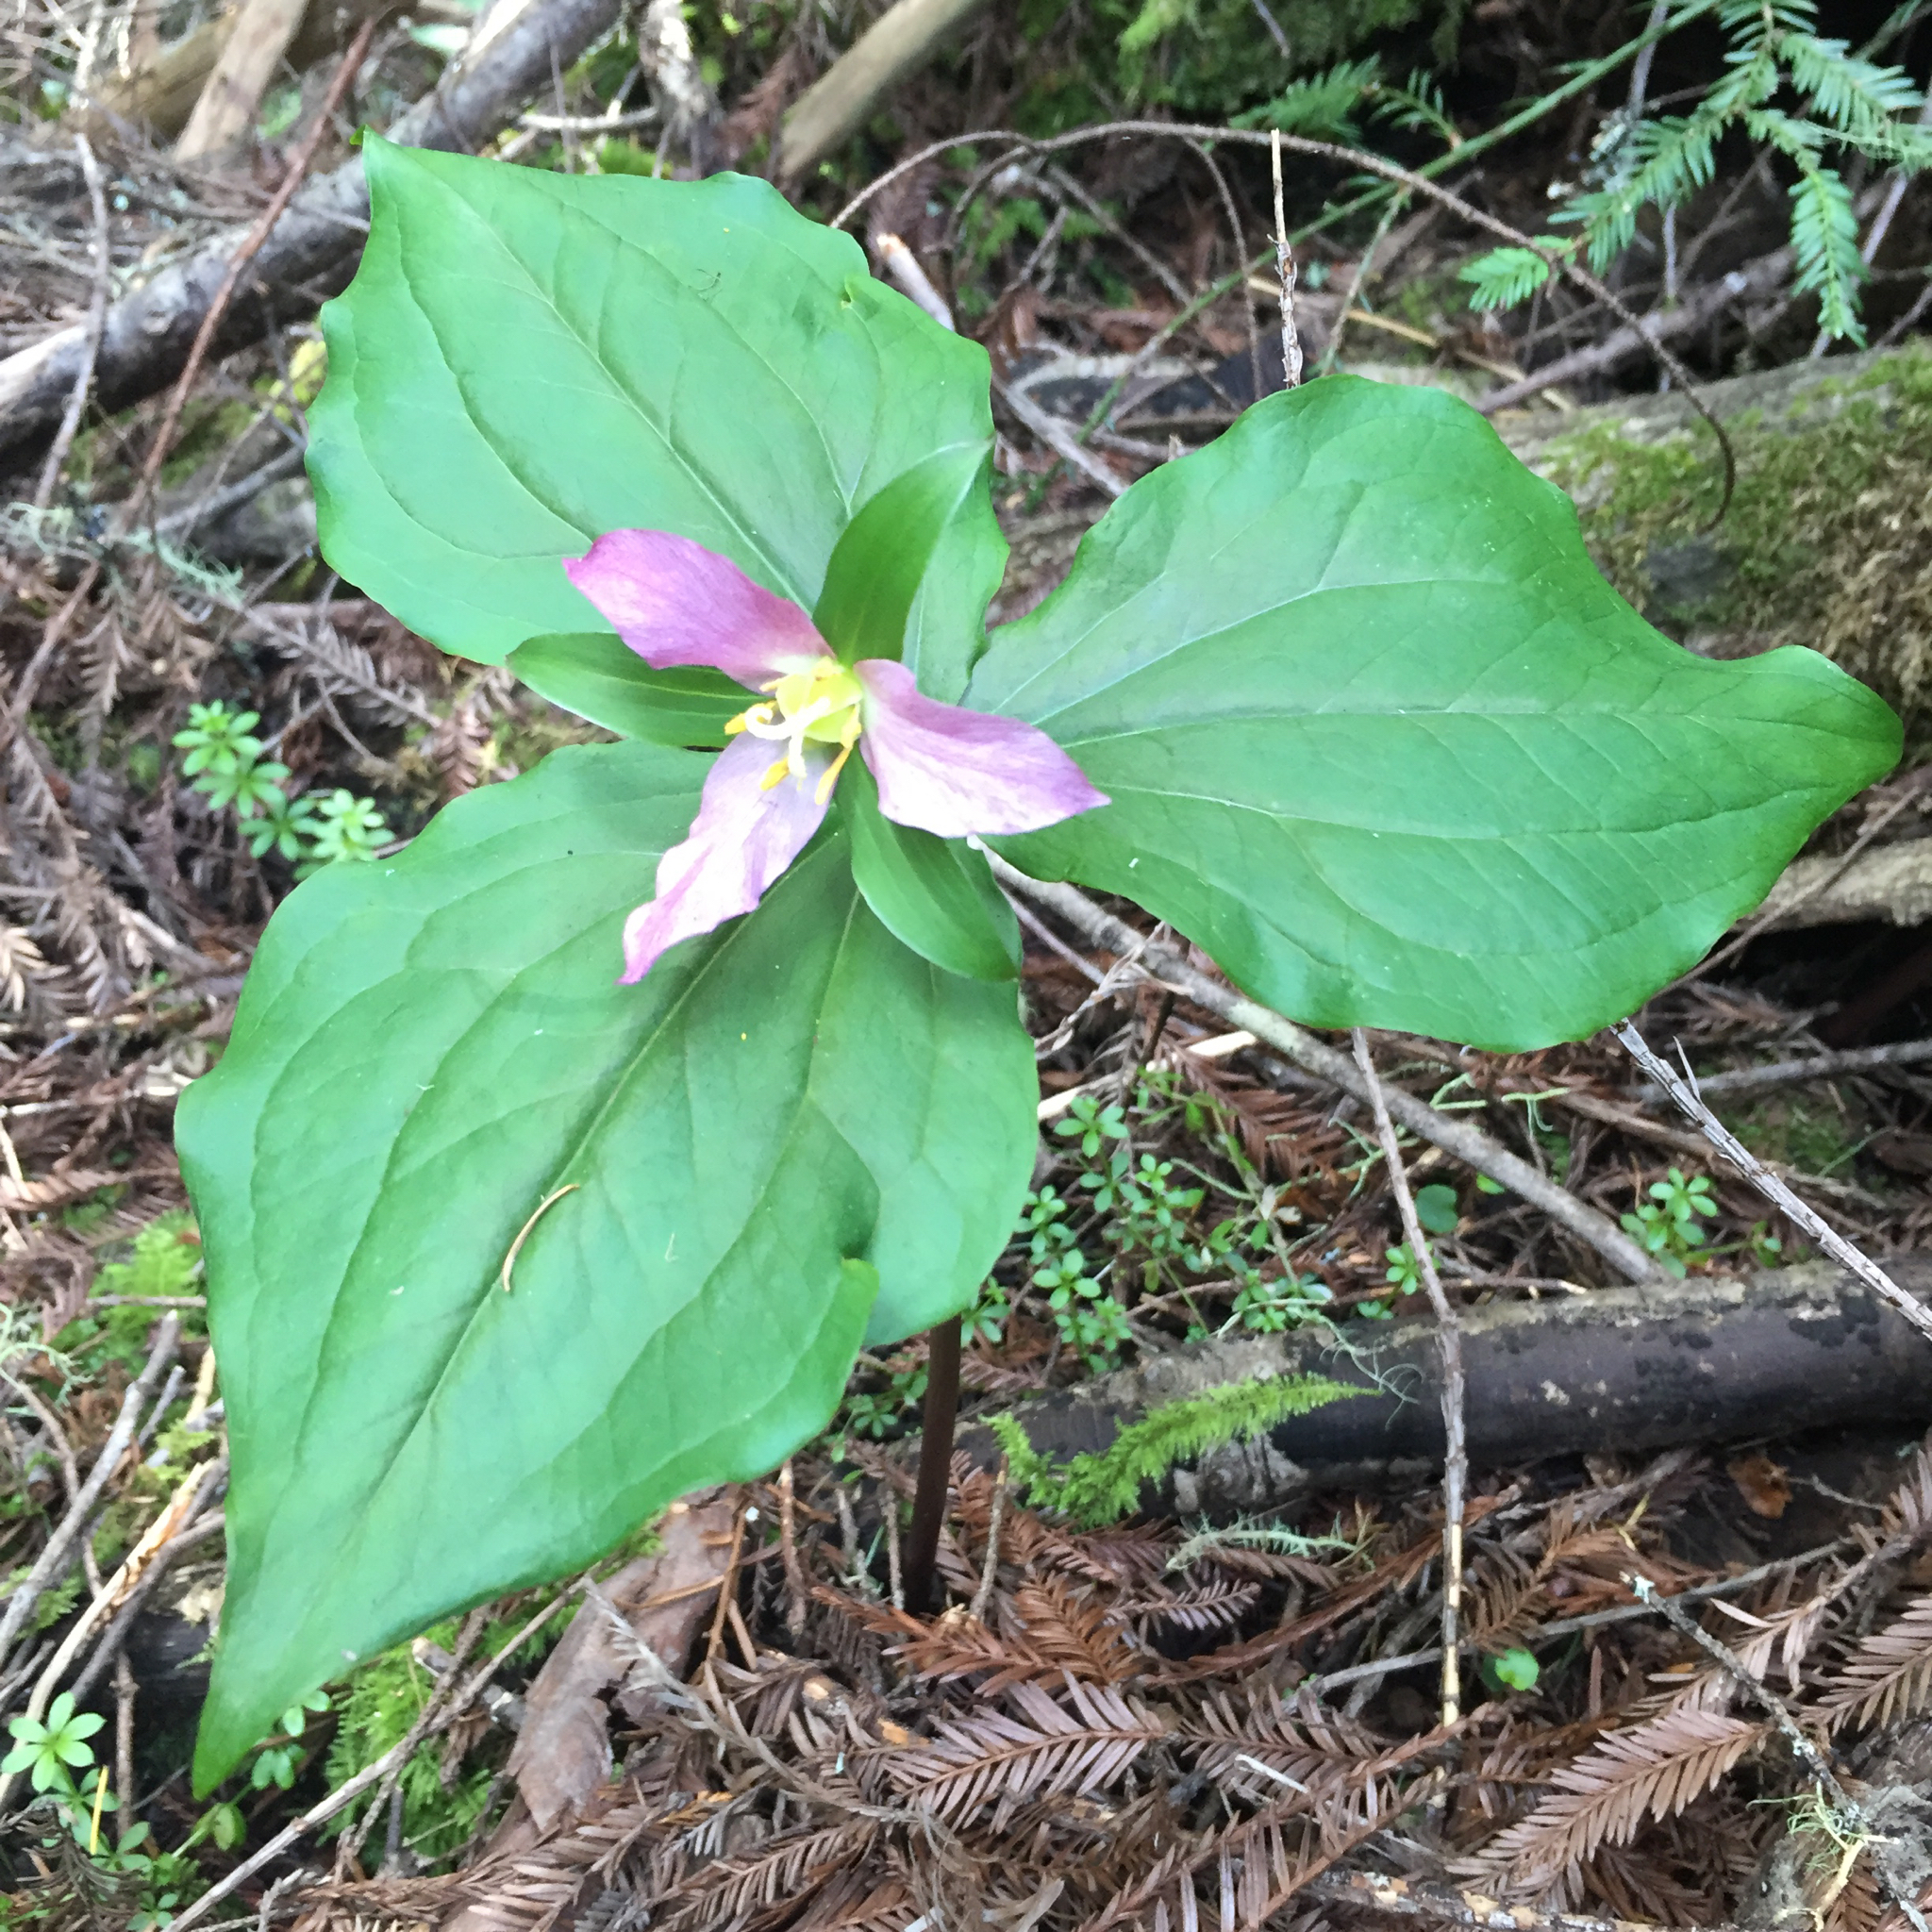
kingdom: Plantae
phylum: Tracheophyta
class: Liliopsida
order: Liliales
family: Melanthiaceae
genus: Trillium
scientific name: Trillium ovatum
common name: Pacific trillium
